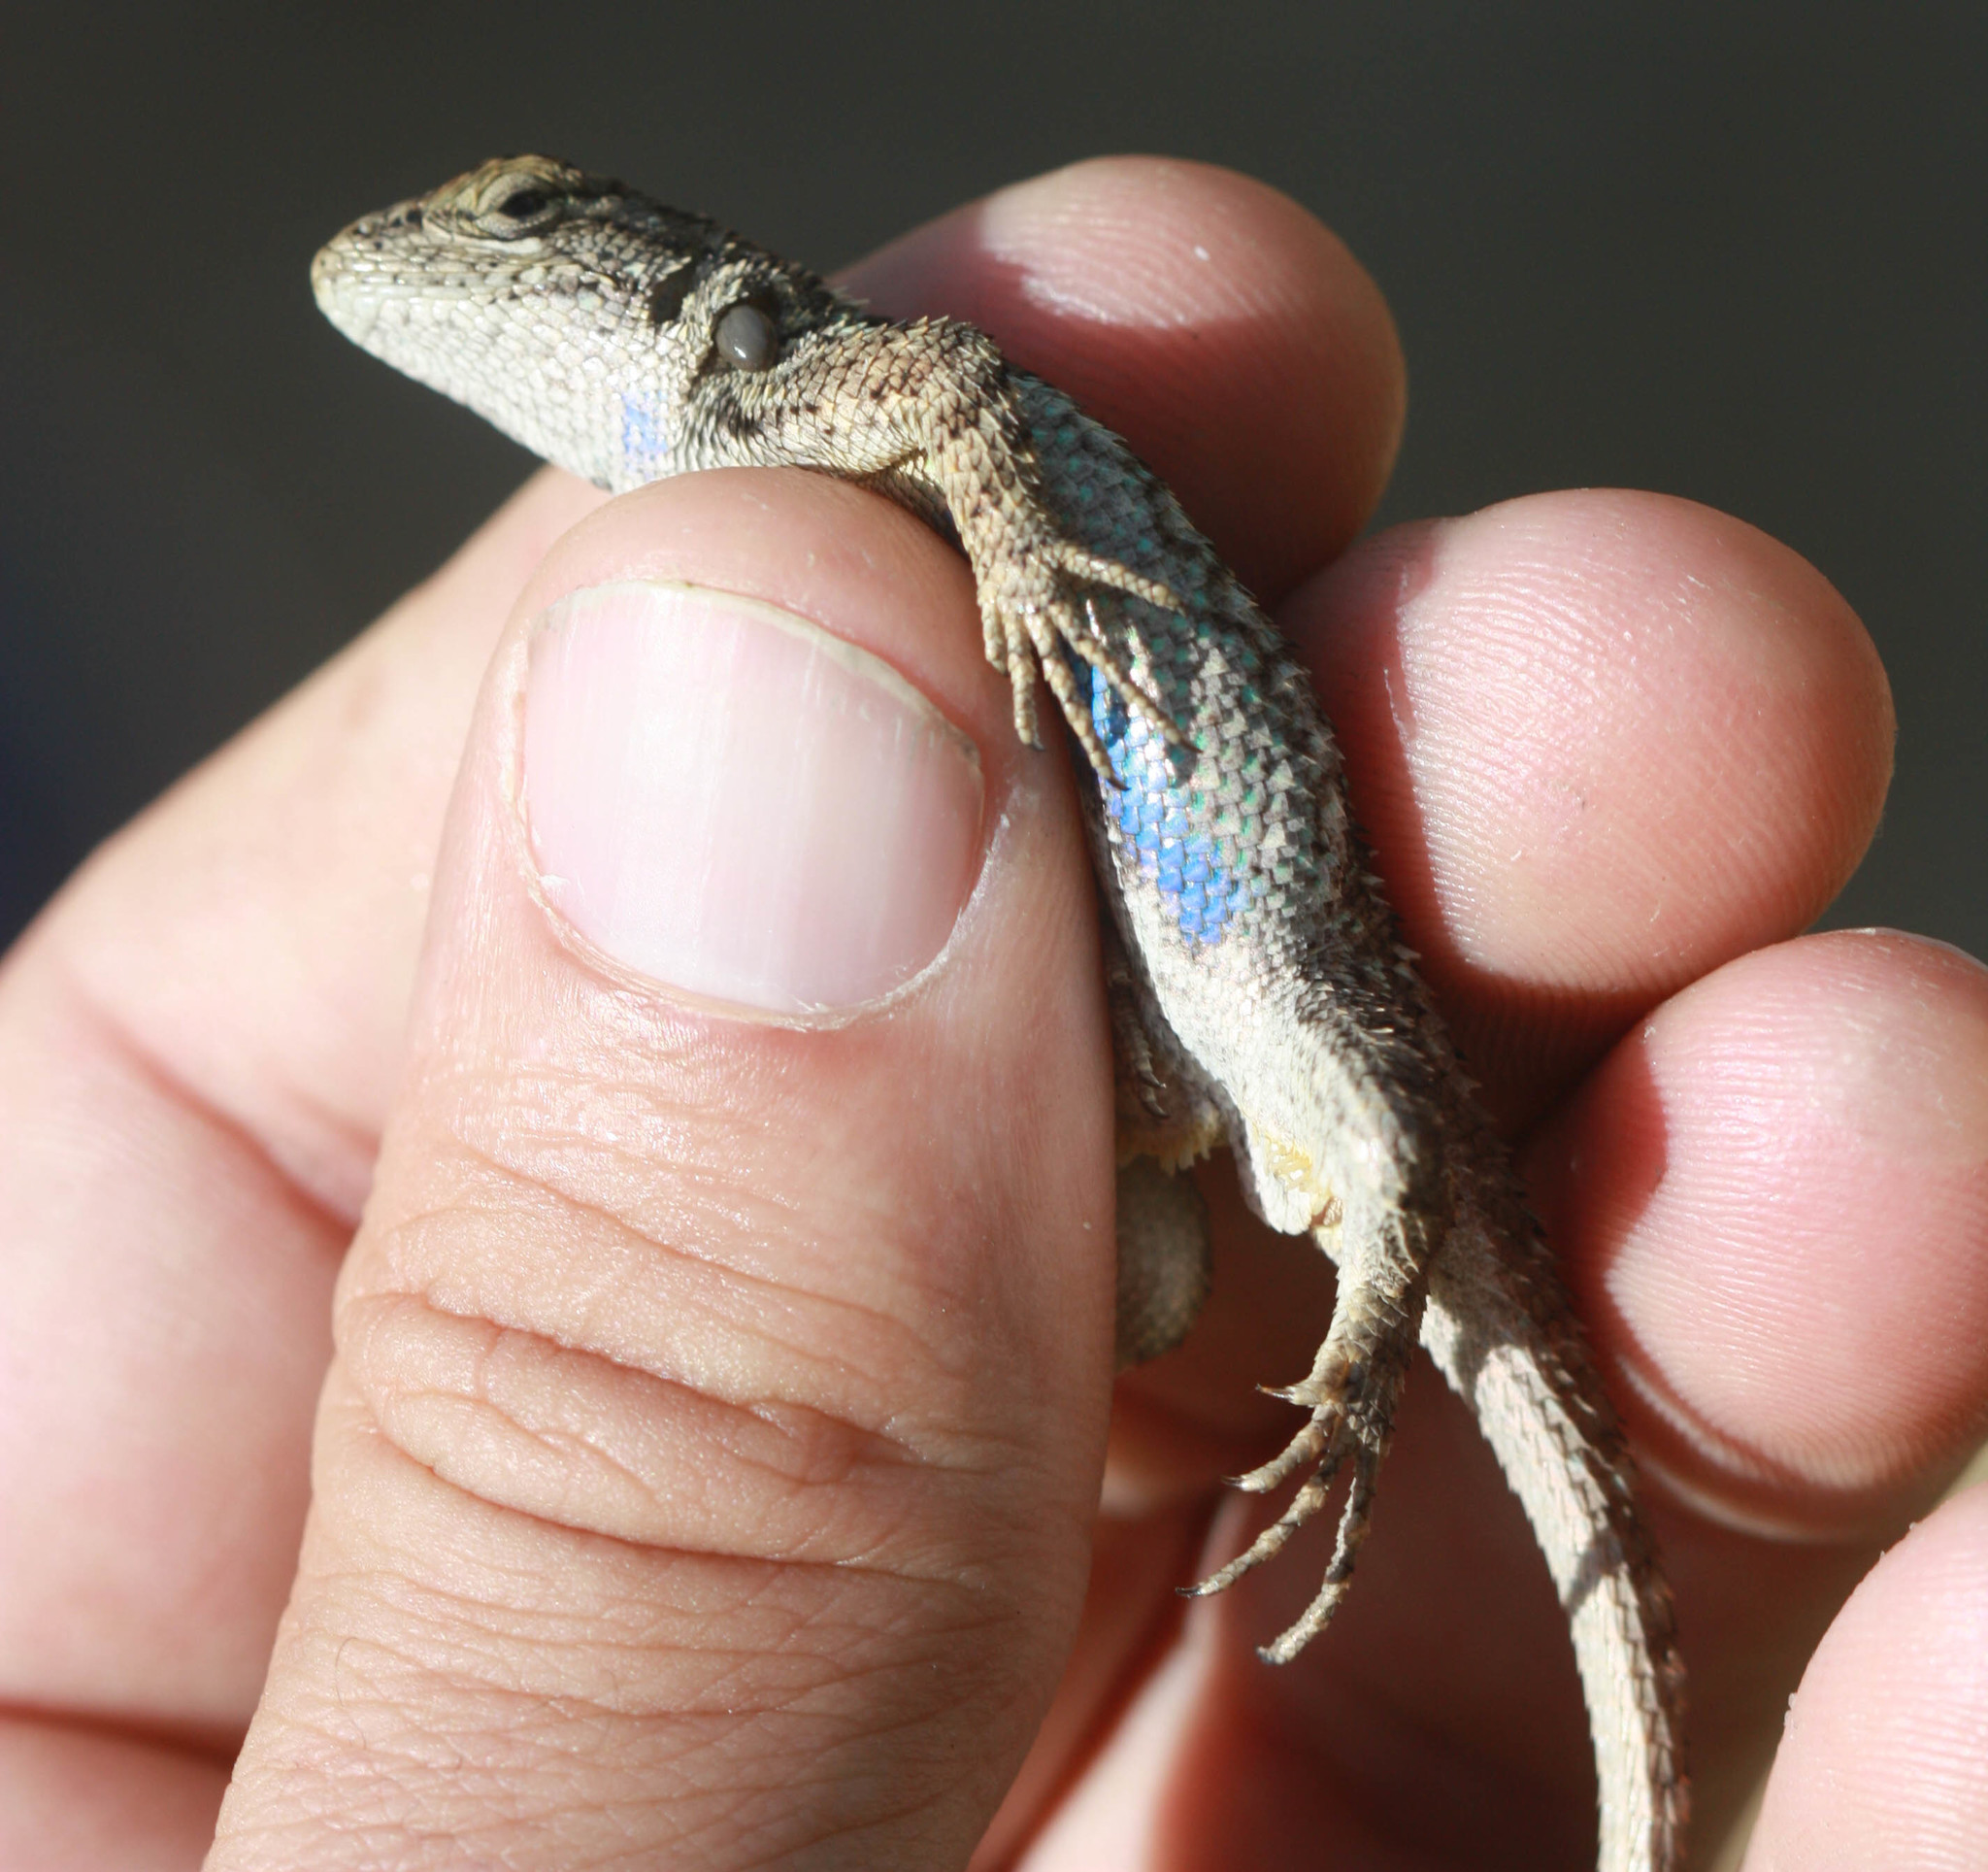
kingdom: Animalia
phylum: Chordata
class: Squamata
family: Phrynosomatidae
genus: Sceloporus
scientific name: Sceloporus occidentalis
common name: Western fence lizard
